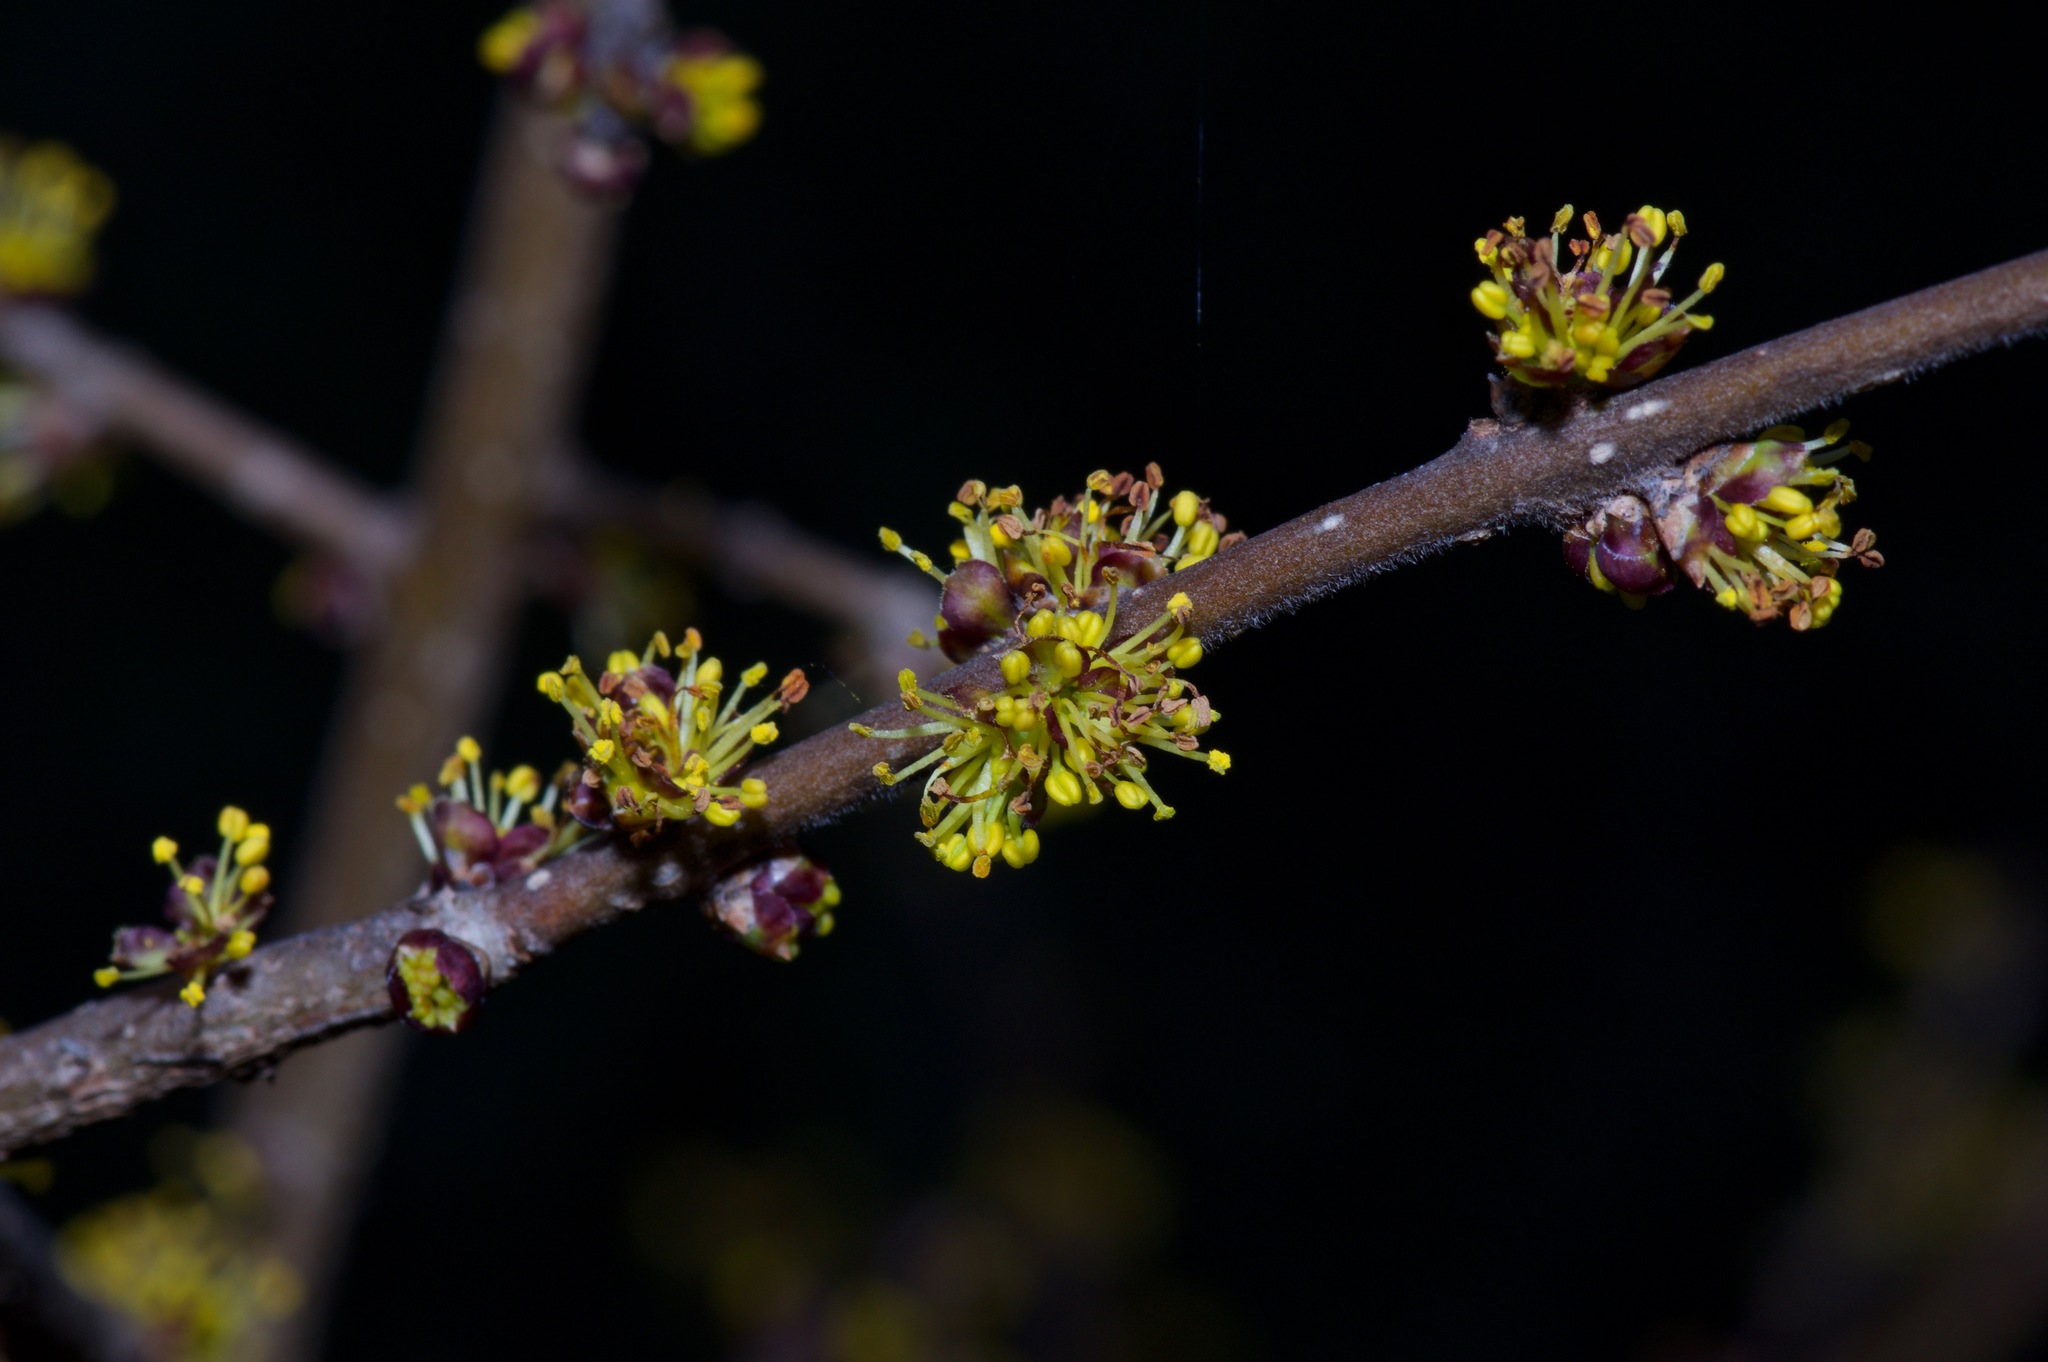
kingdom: Plantae
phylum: Tracheophyta
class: Magnoliopsida
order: Lamiales
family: Oleaceae
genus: Forestiera
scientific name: Forestiera pubescens
